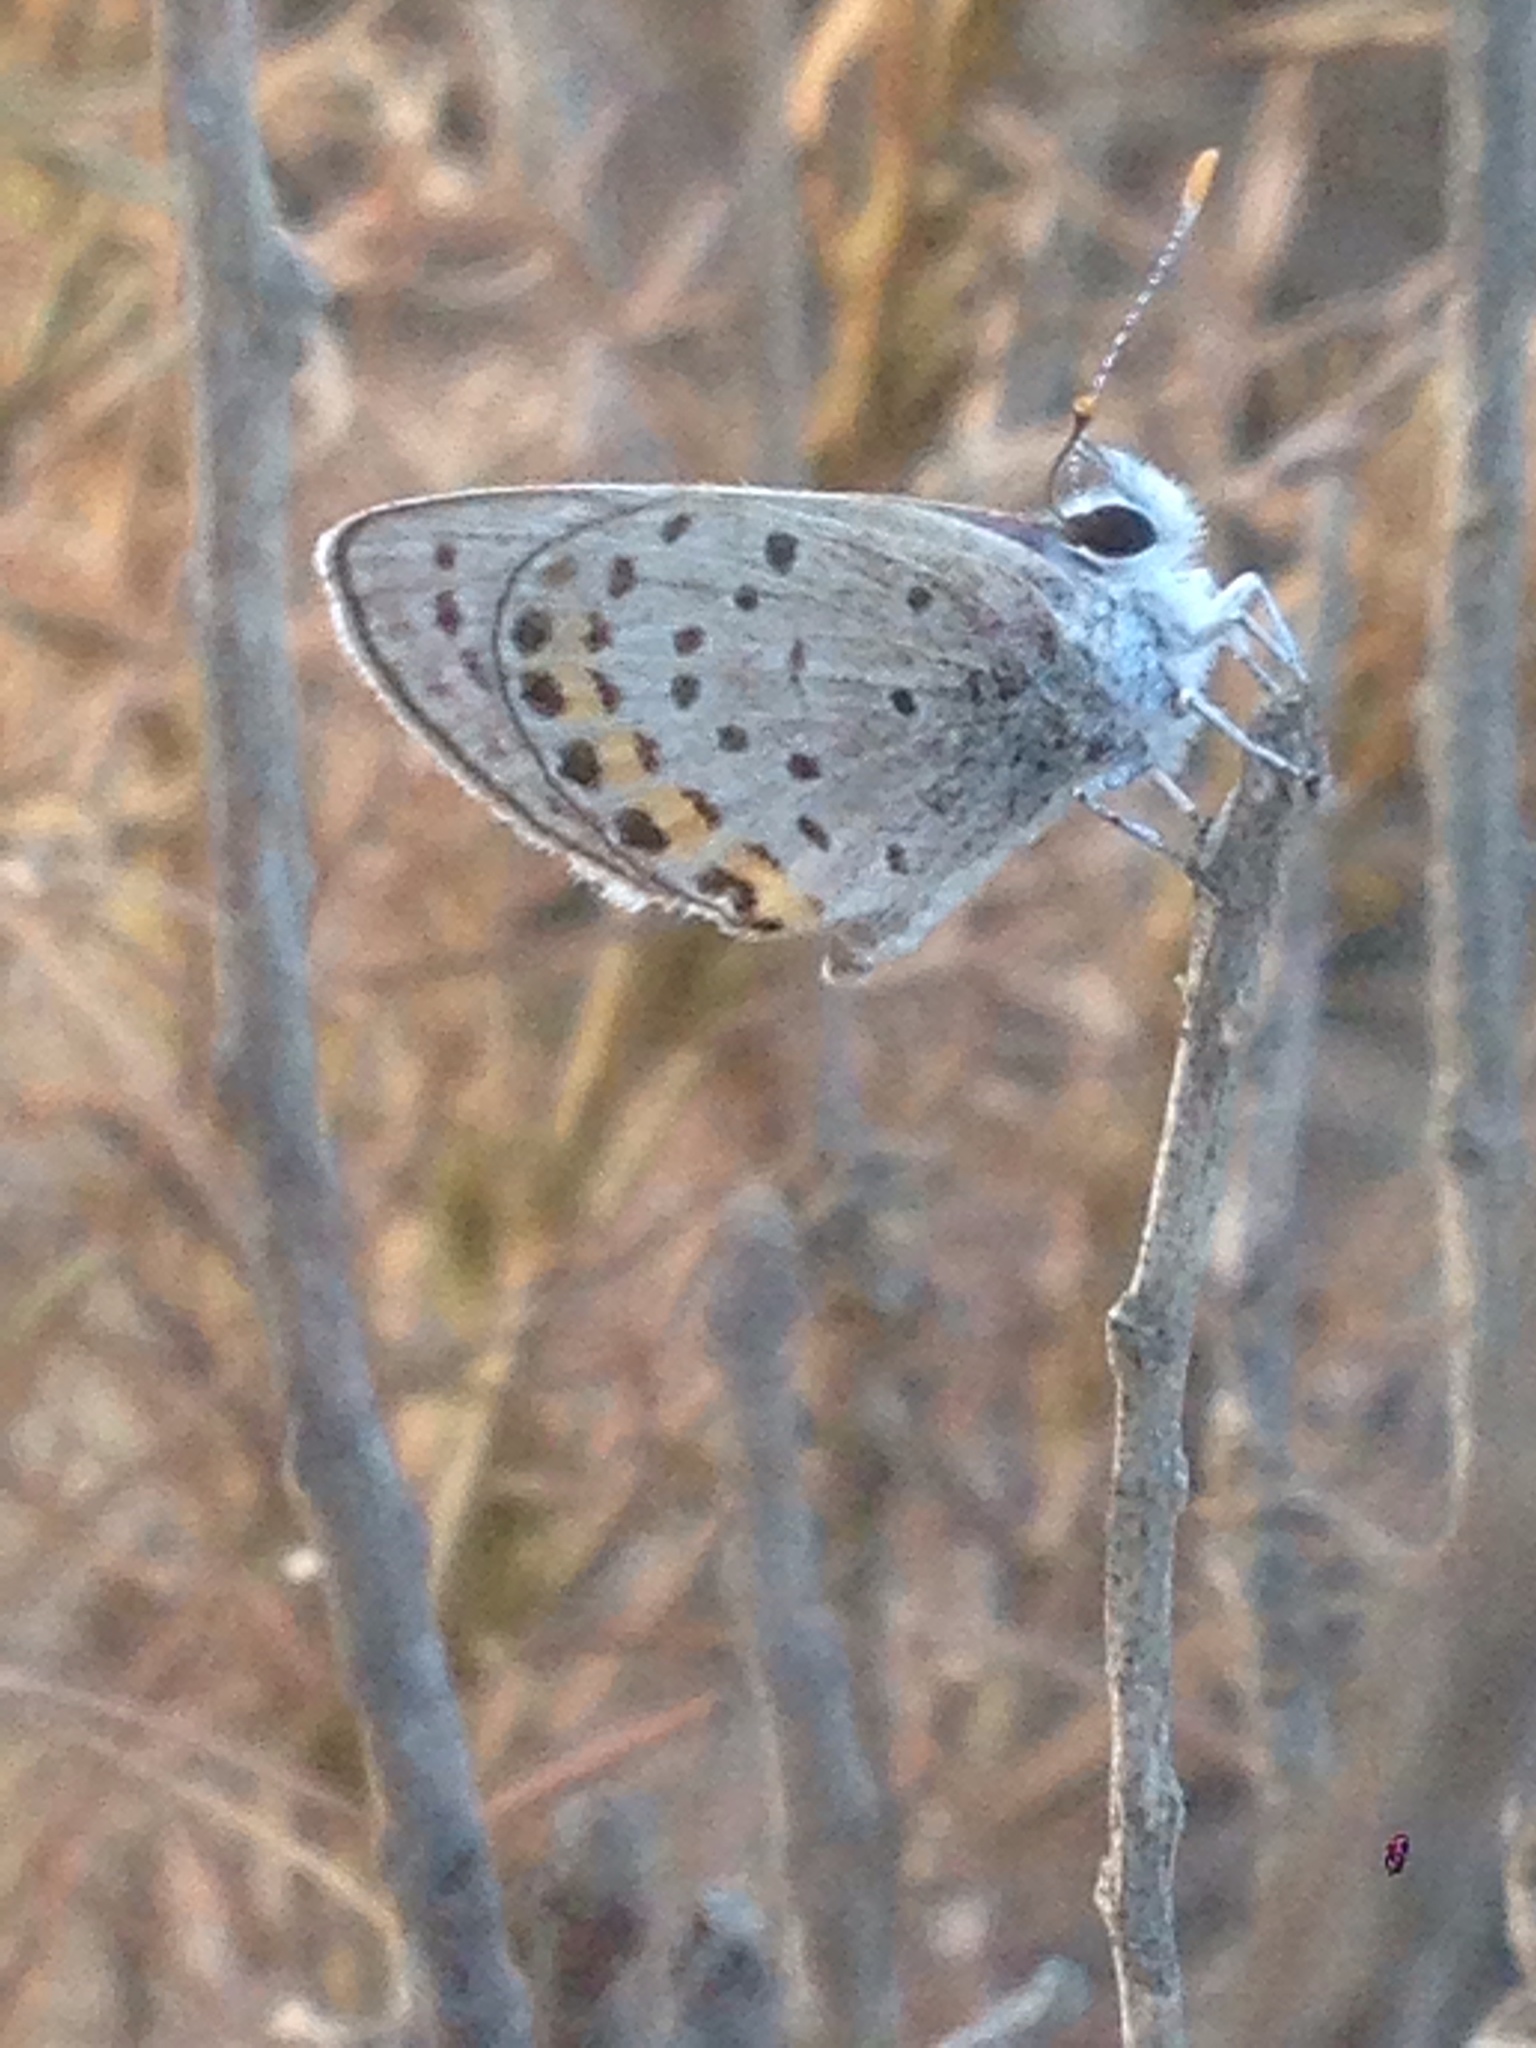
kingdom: Animalia
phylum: Arthropoda
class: Insecta
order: Lepidoptera
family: Lycaenidae
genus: Icaricia
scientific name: Icaricia acmon
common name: Acmon blue
